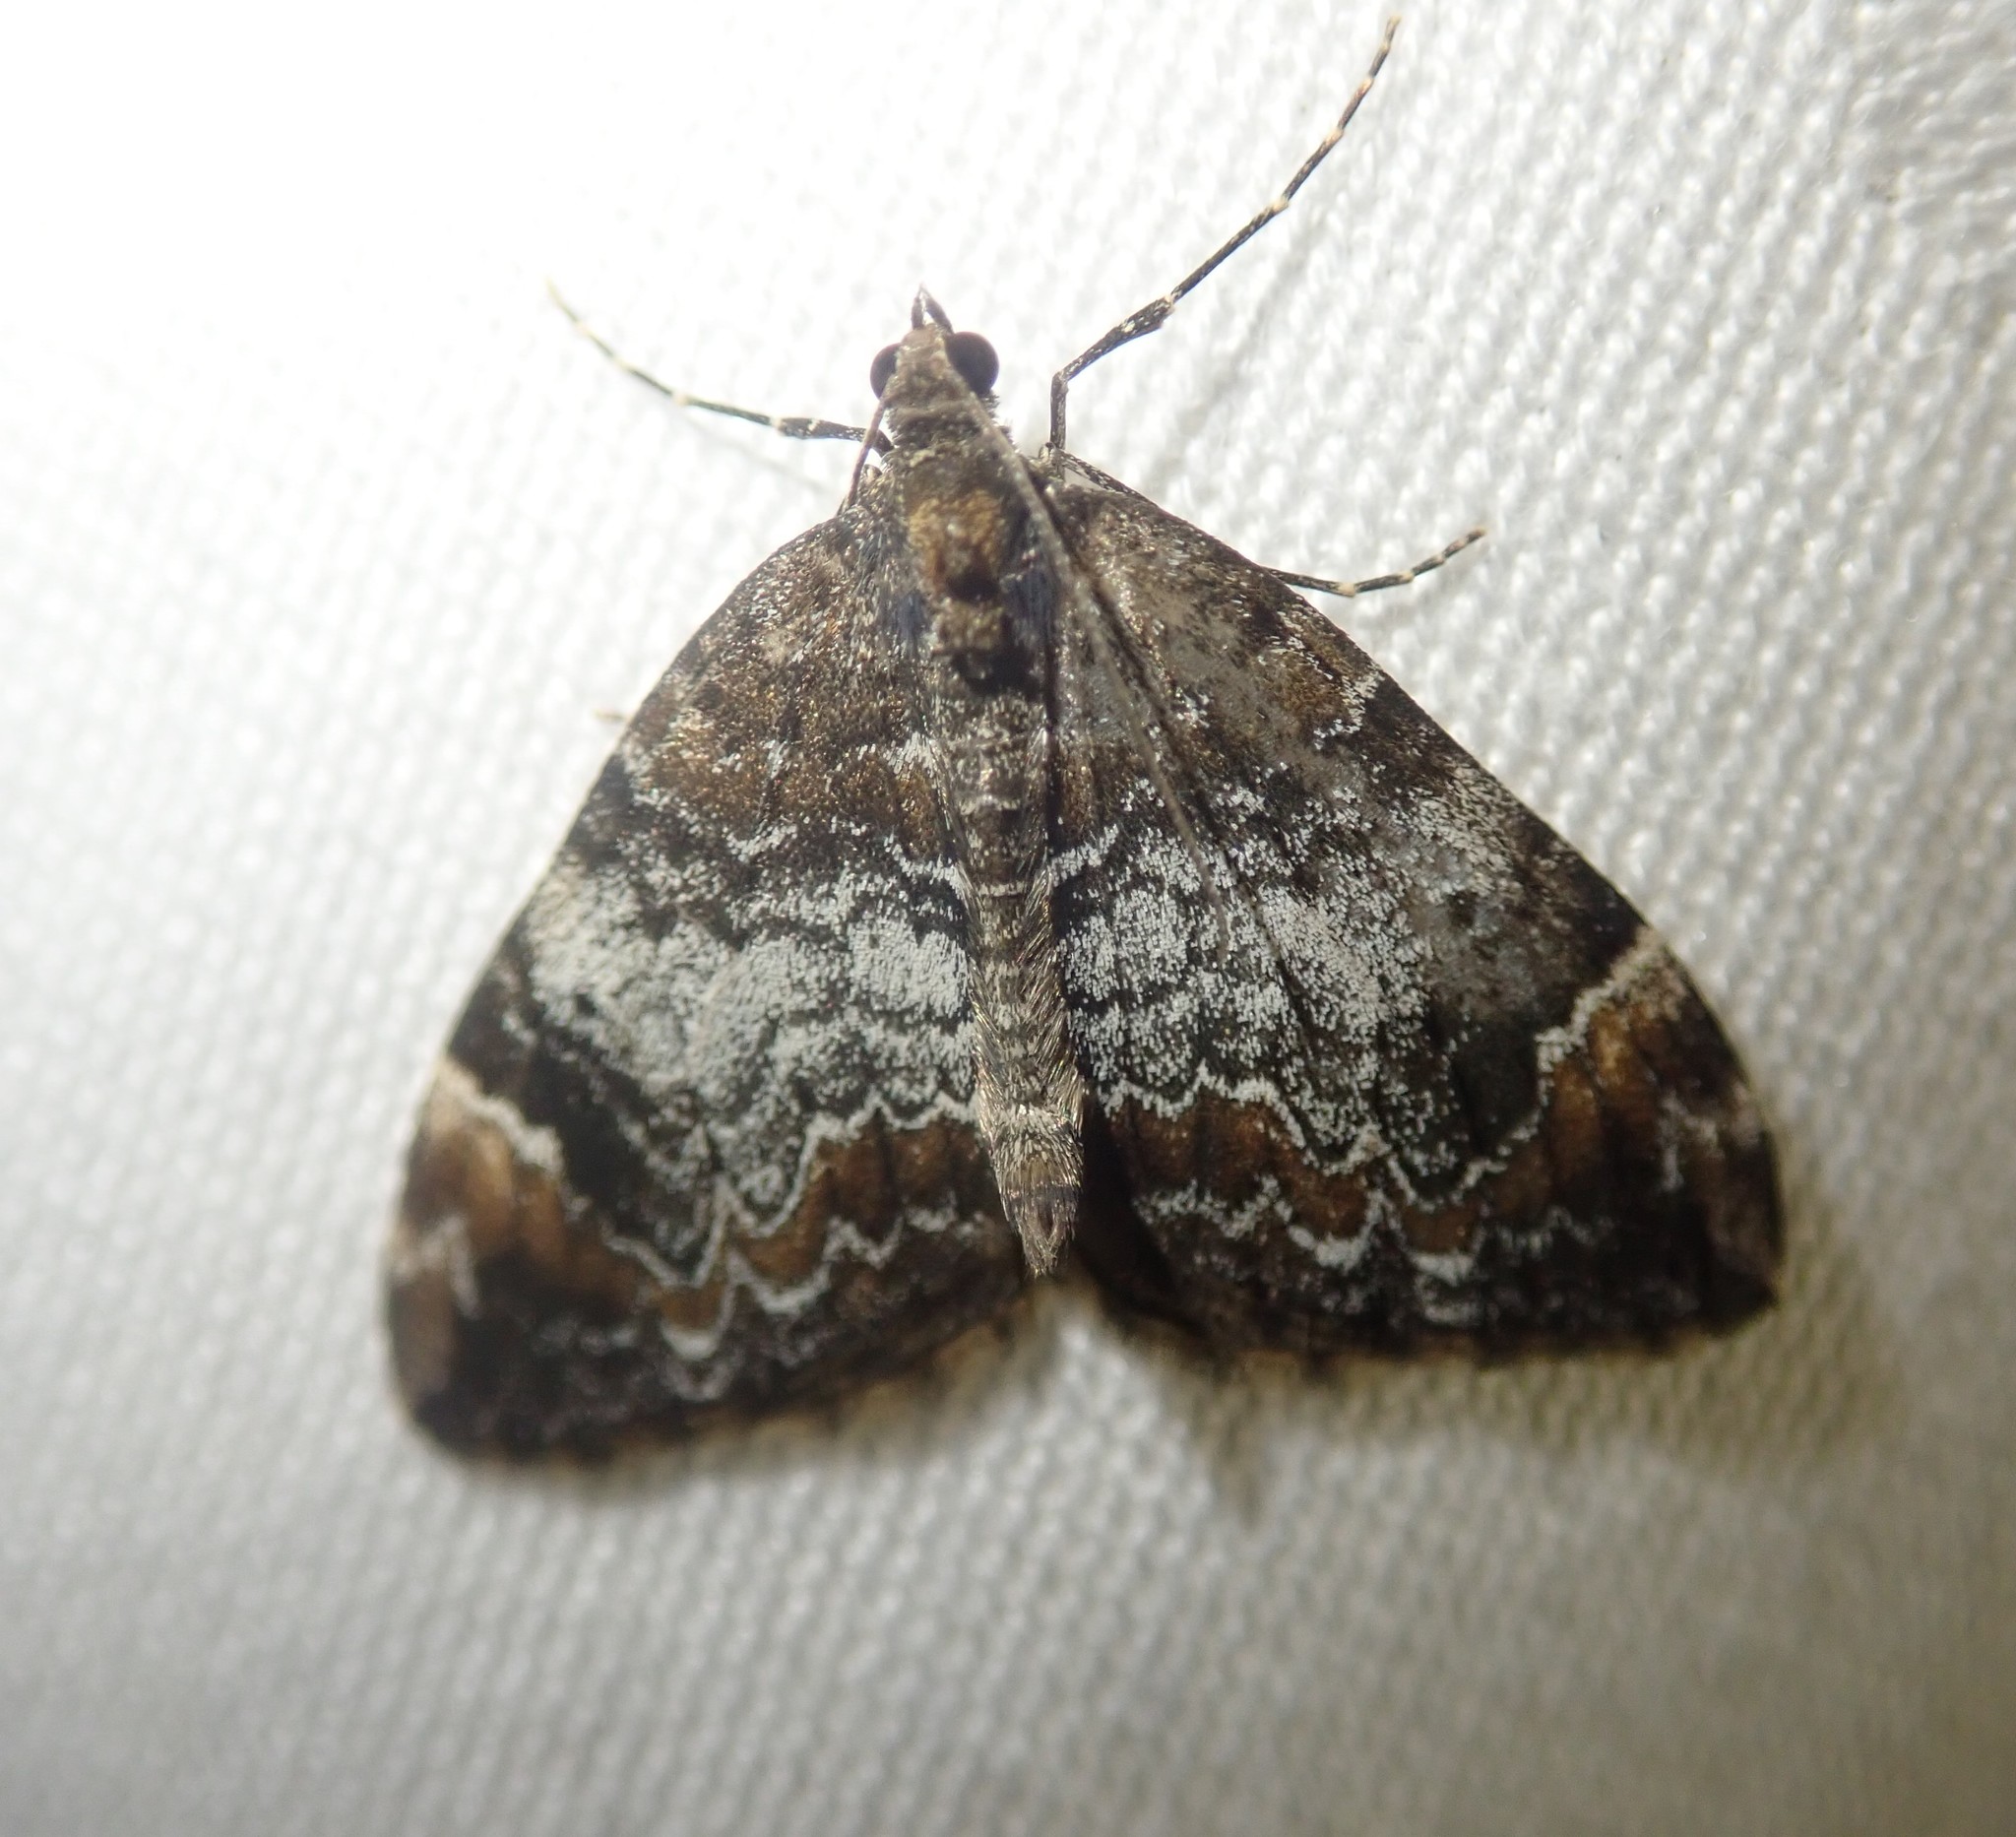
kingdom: Animalia
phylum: Arthropoda
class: Insecta
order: Lepidoptera
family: Geometridae
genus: Dysstroma
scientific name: Dysstroma truncata
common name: Common marbled carpet
